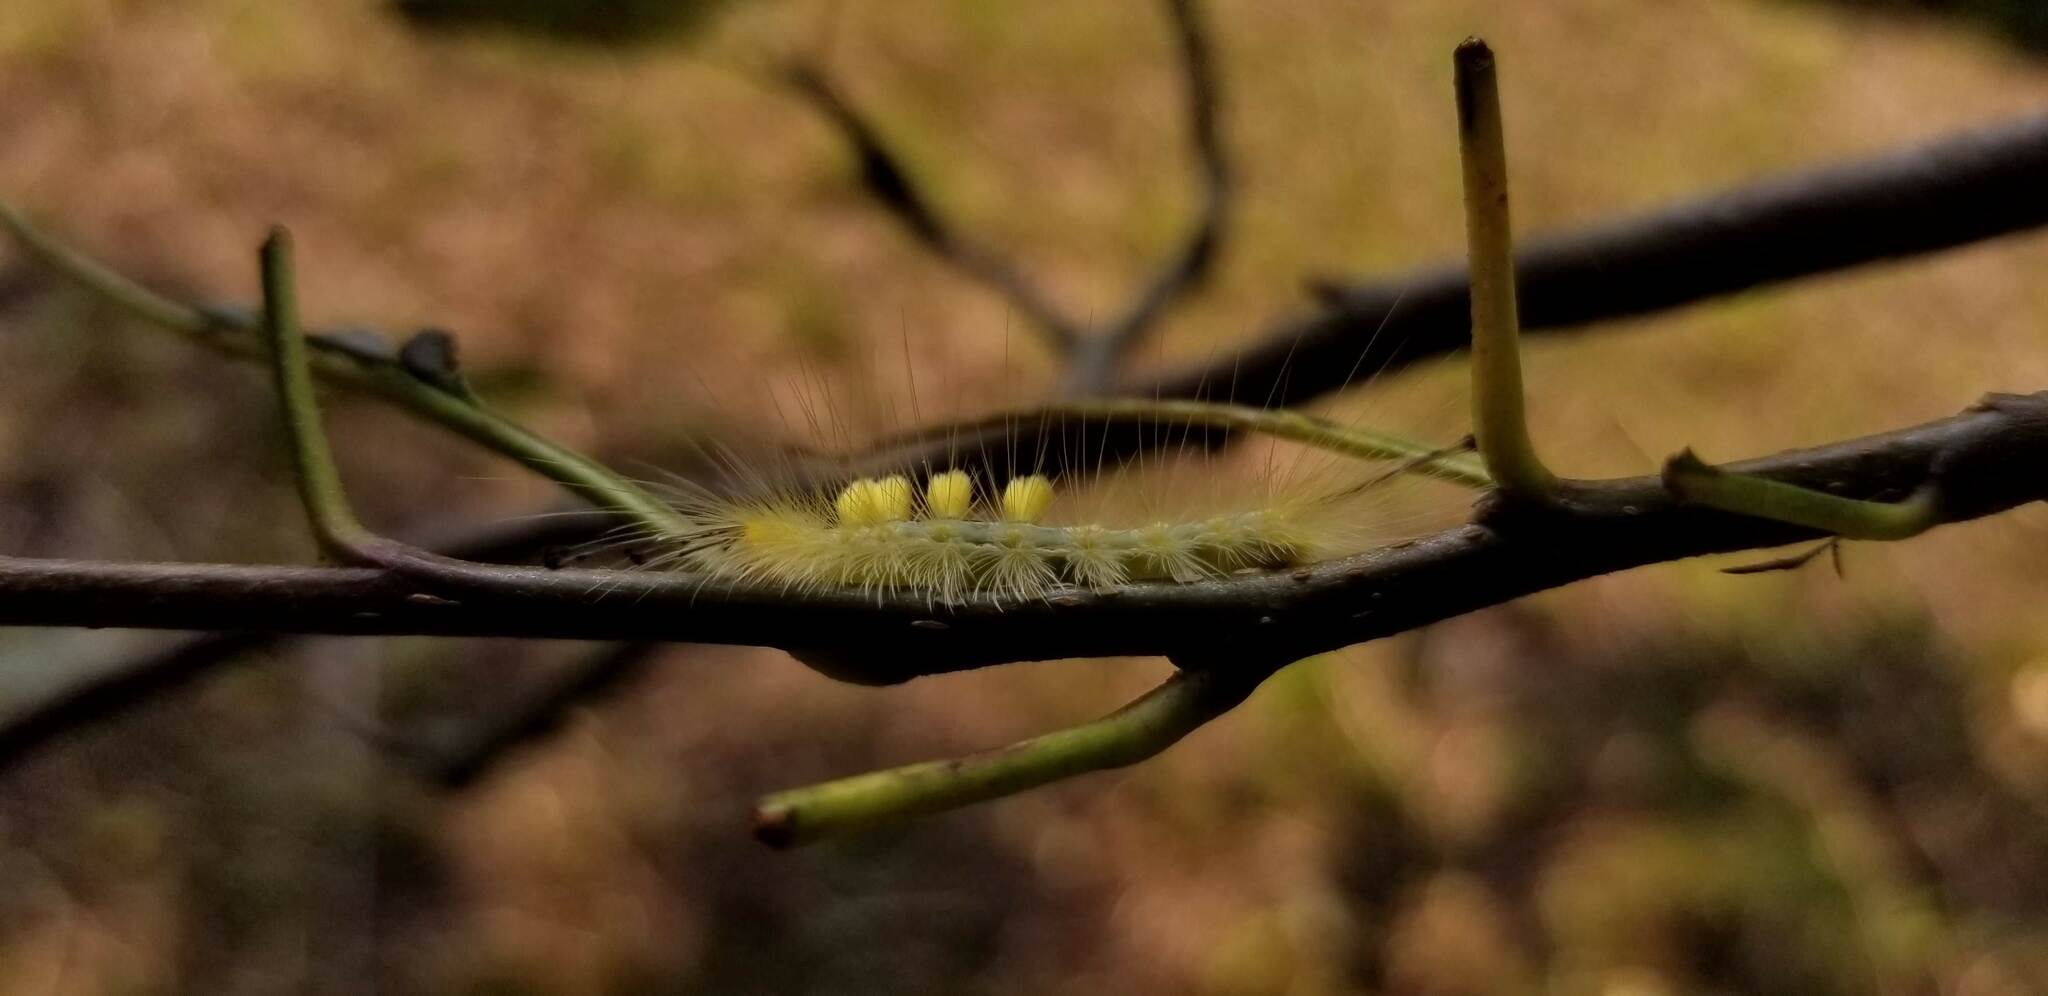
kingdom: Animalia
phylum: Arthropoda
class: Insecta
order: Lepidoptera
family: Erebidae
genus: Orgyia
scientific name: Orgyia definita
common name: Definite tussock moth
